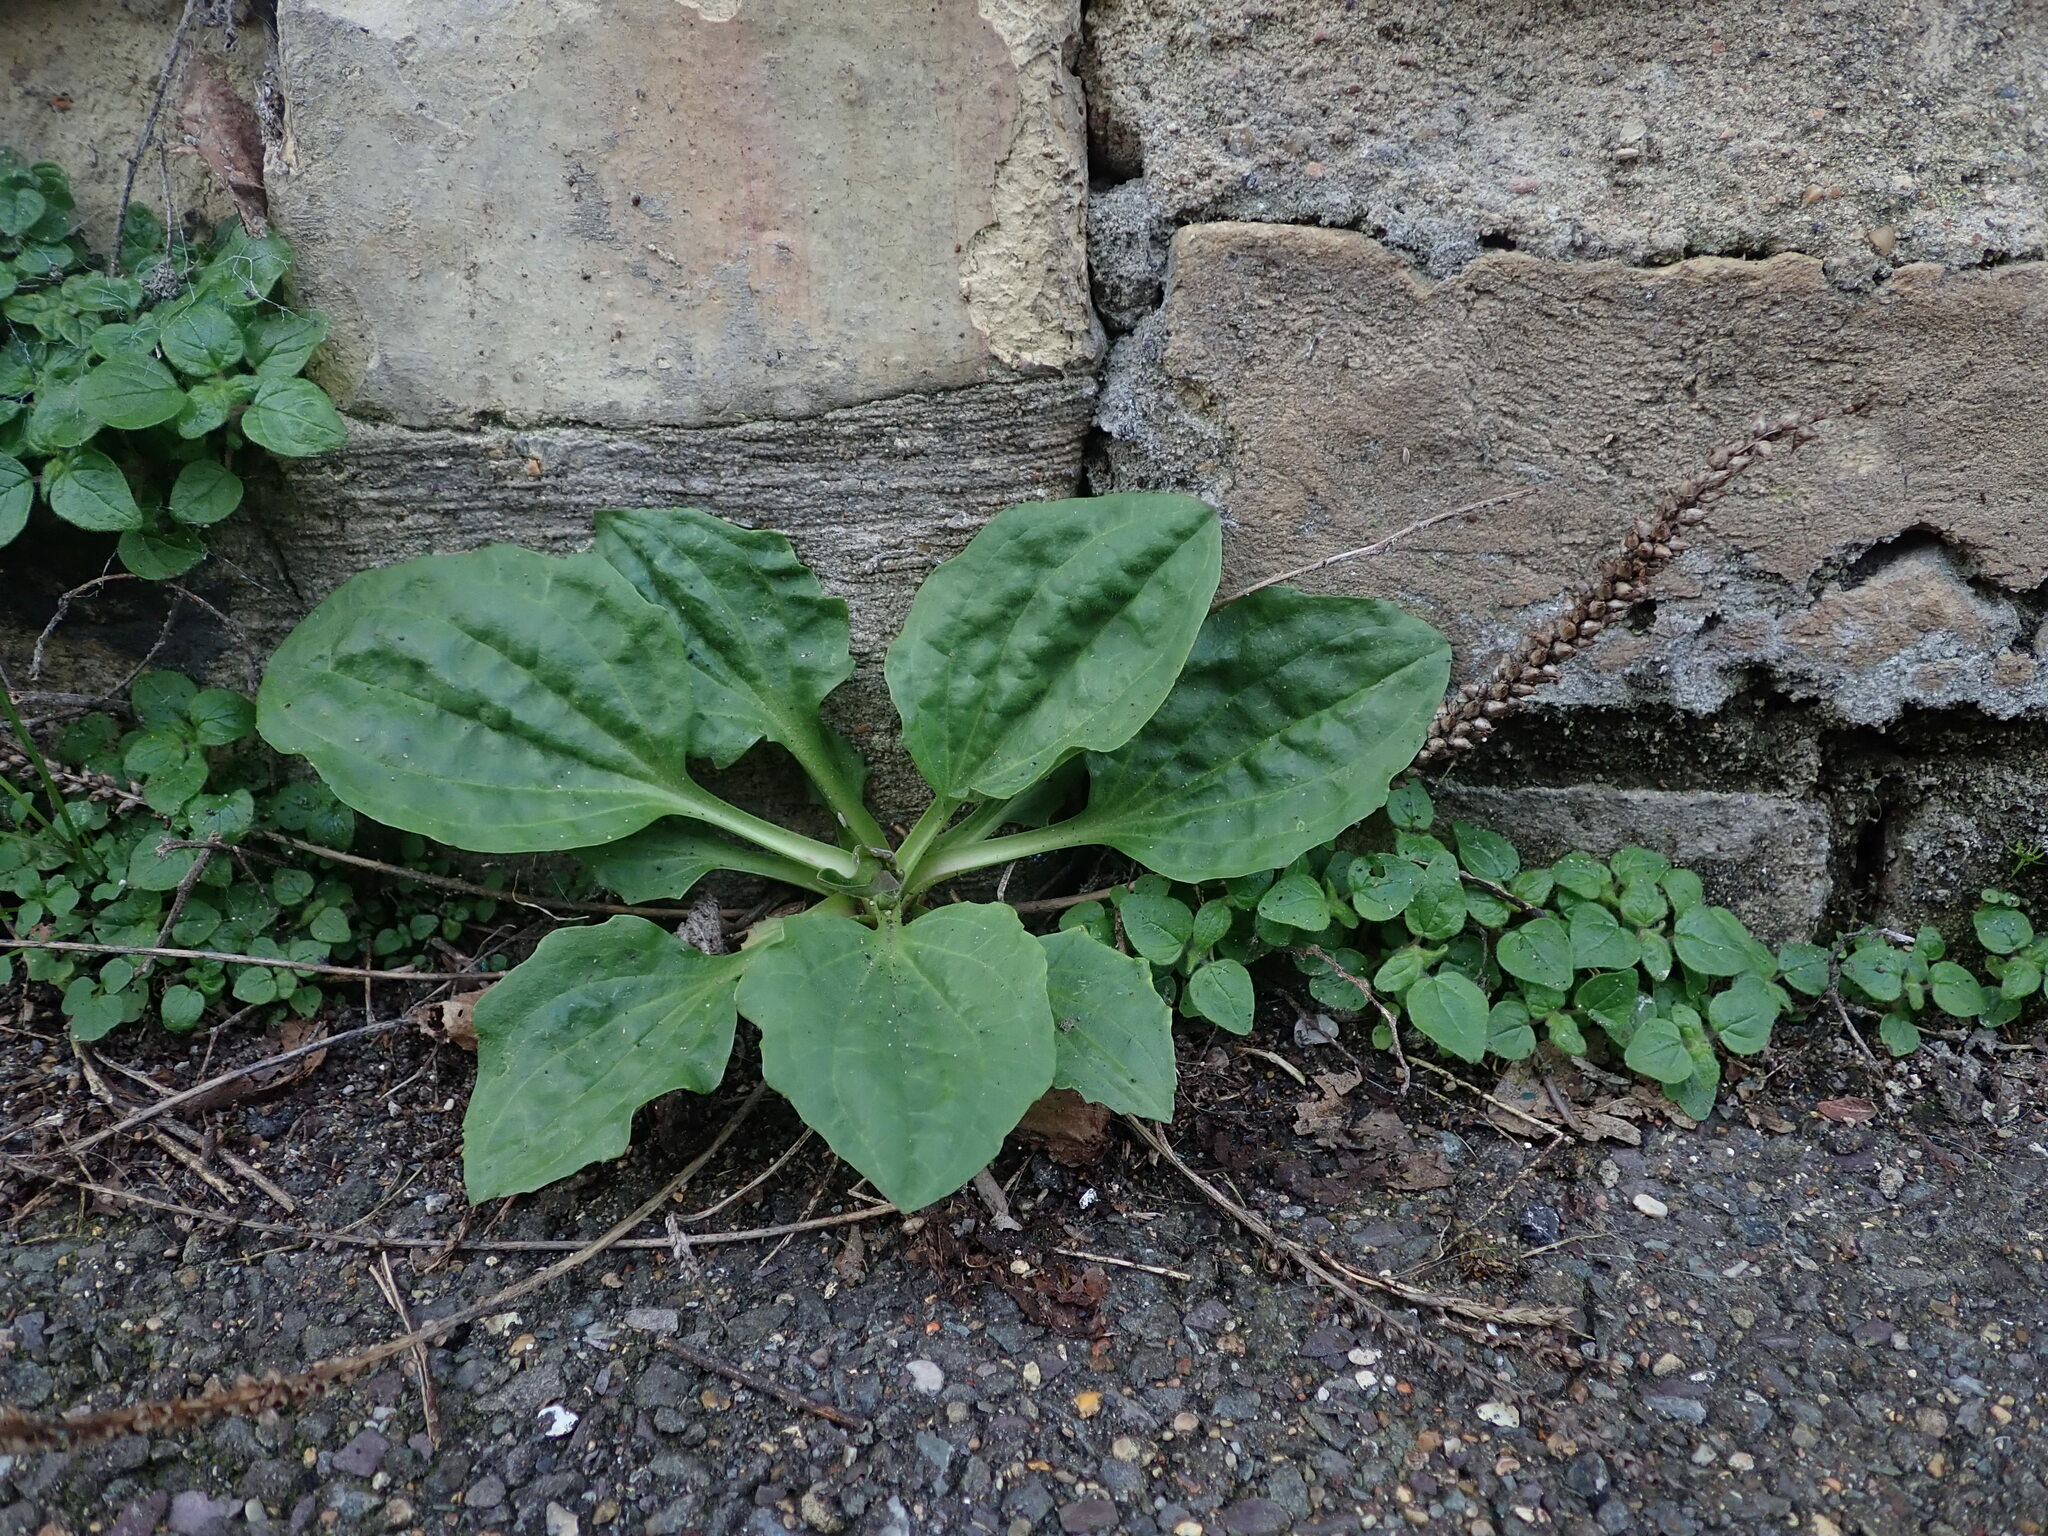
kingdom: Plantae
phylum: Tracheophyta
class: Magnoliopsida
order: Lamiales
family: Plantaginaceae
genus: Plantago
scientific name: Plantago major
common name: Common plantain
